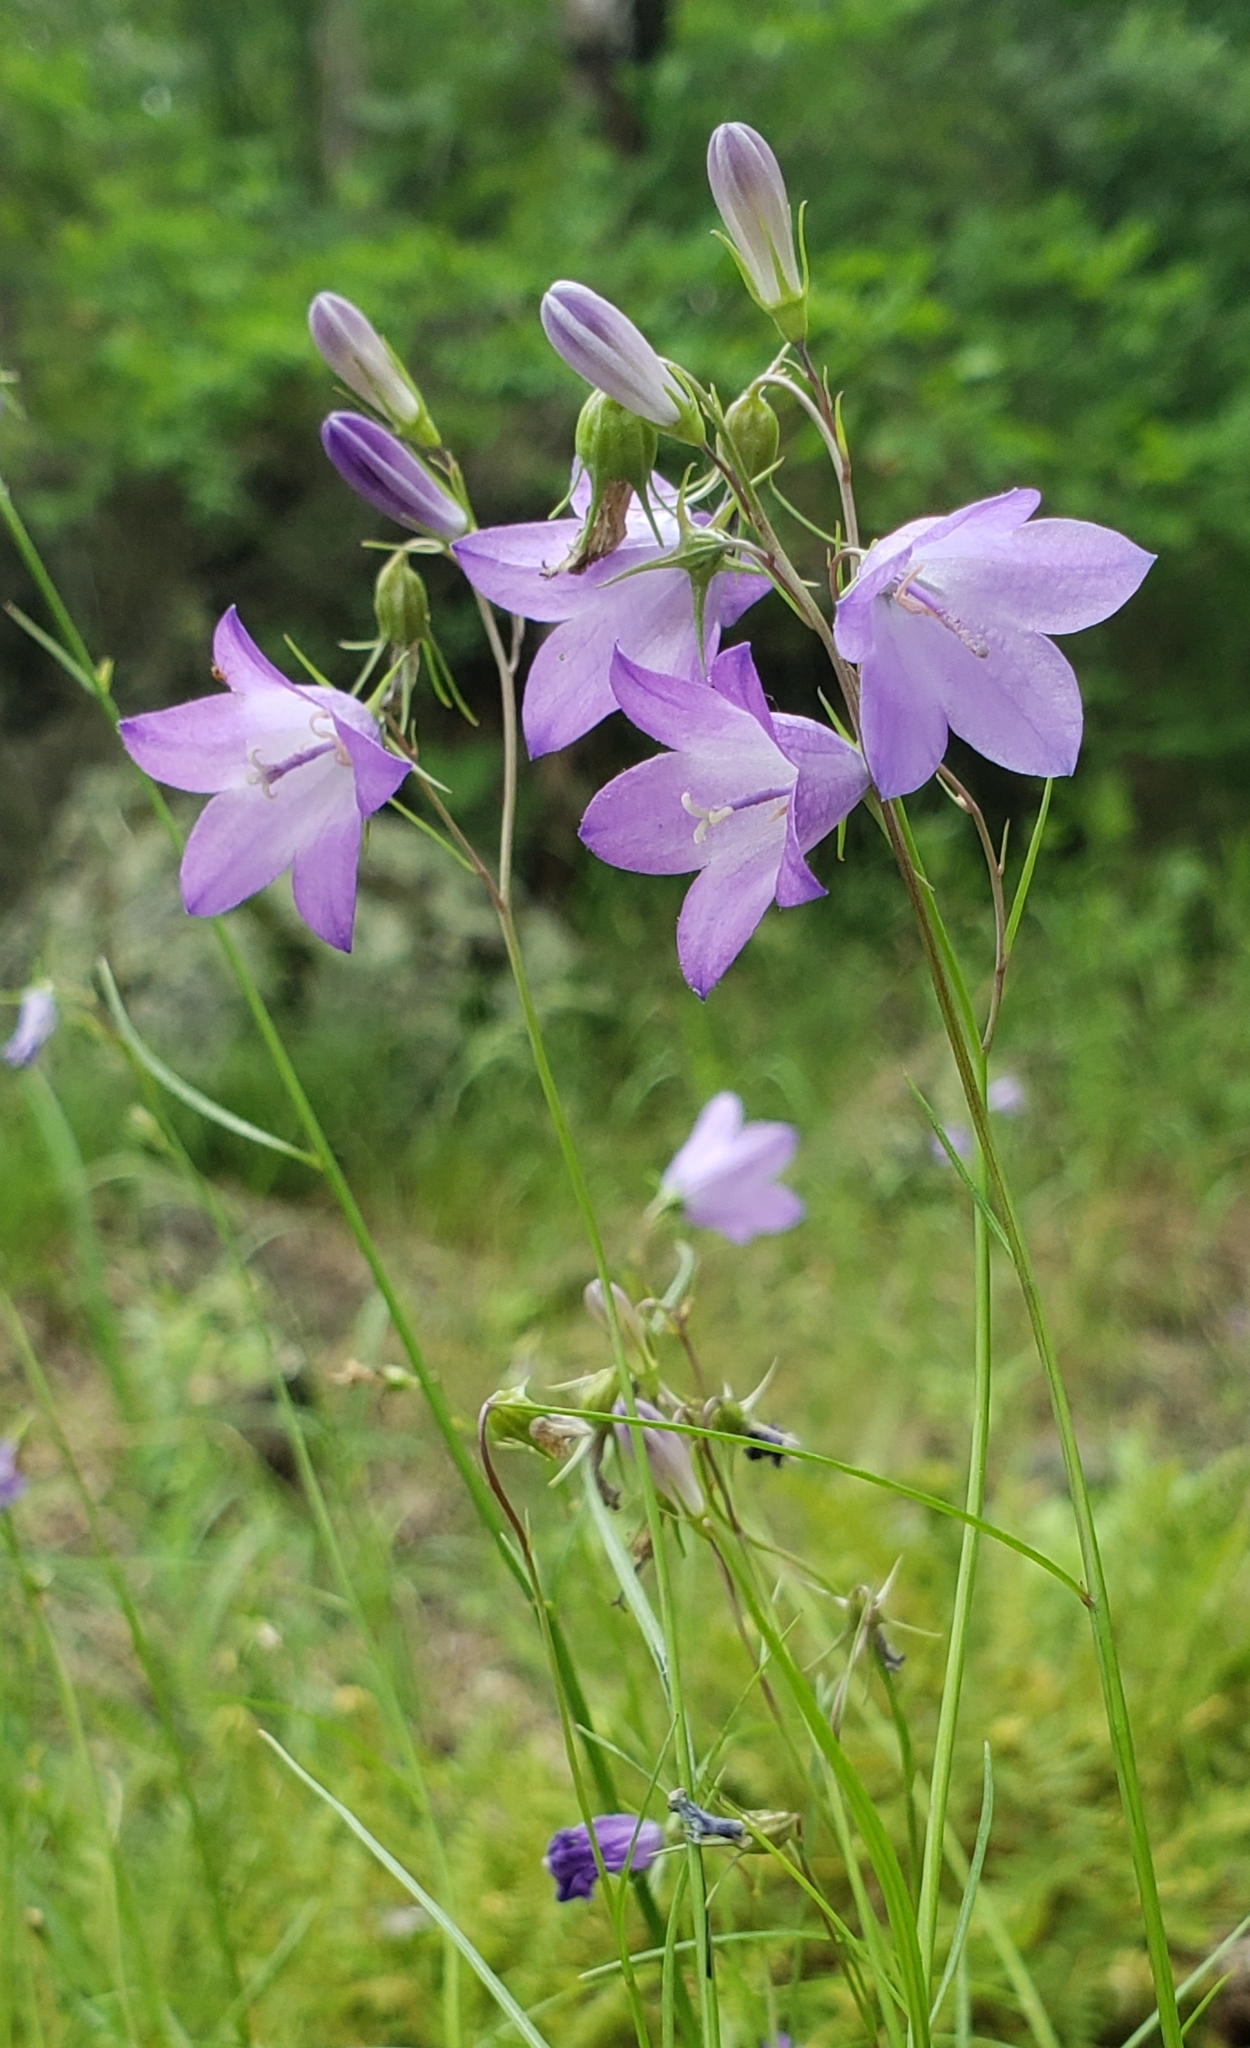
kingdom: Plantae
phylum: Tracheophyta
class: Magnoliopsida
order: Asterales
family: Campanulaceae
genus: Campanula
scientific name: Campanula intercedens
